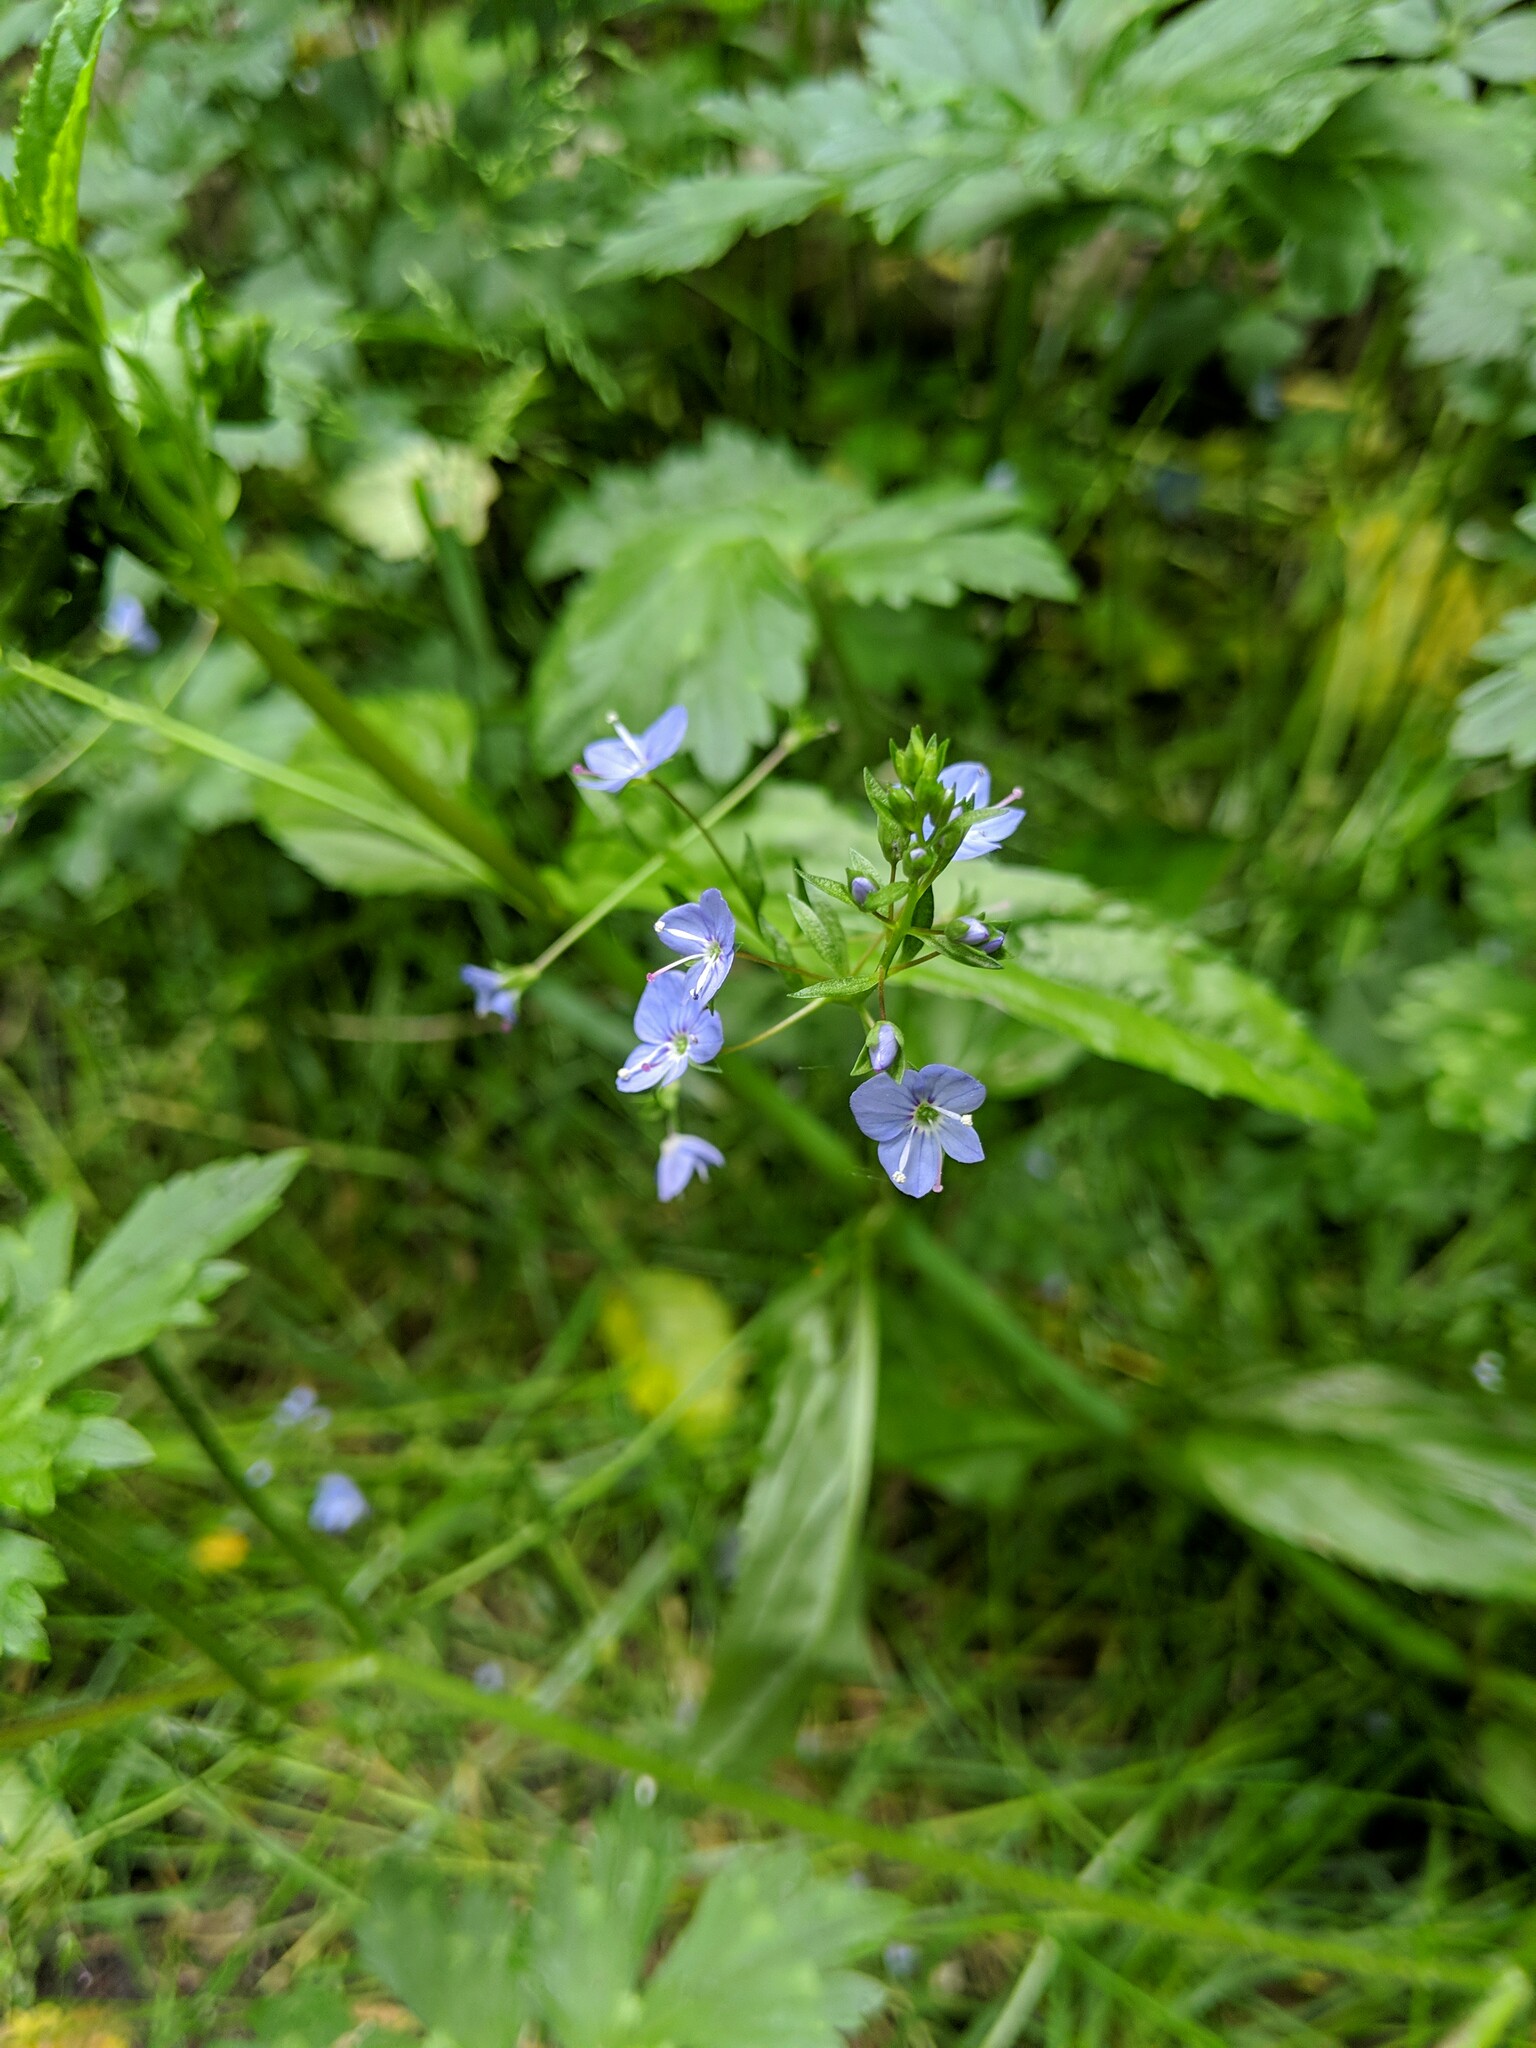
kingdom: Plantae
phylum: Tracheophyta
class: Magnoliopsida
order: Lamiales
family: Plantaginaceae
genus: Veronica
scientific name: Veronica americana
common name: American brooklime
